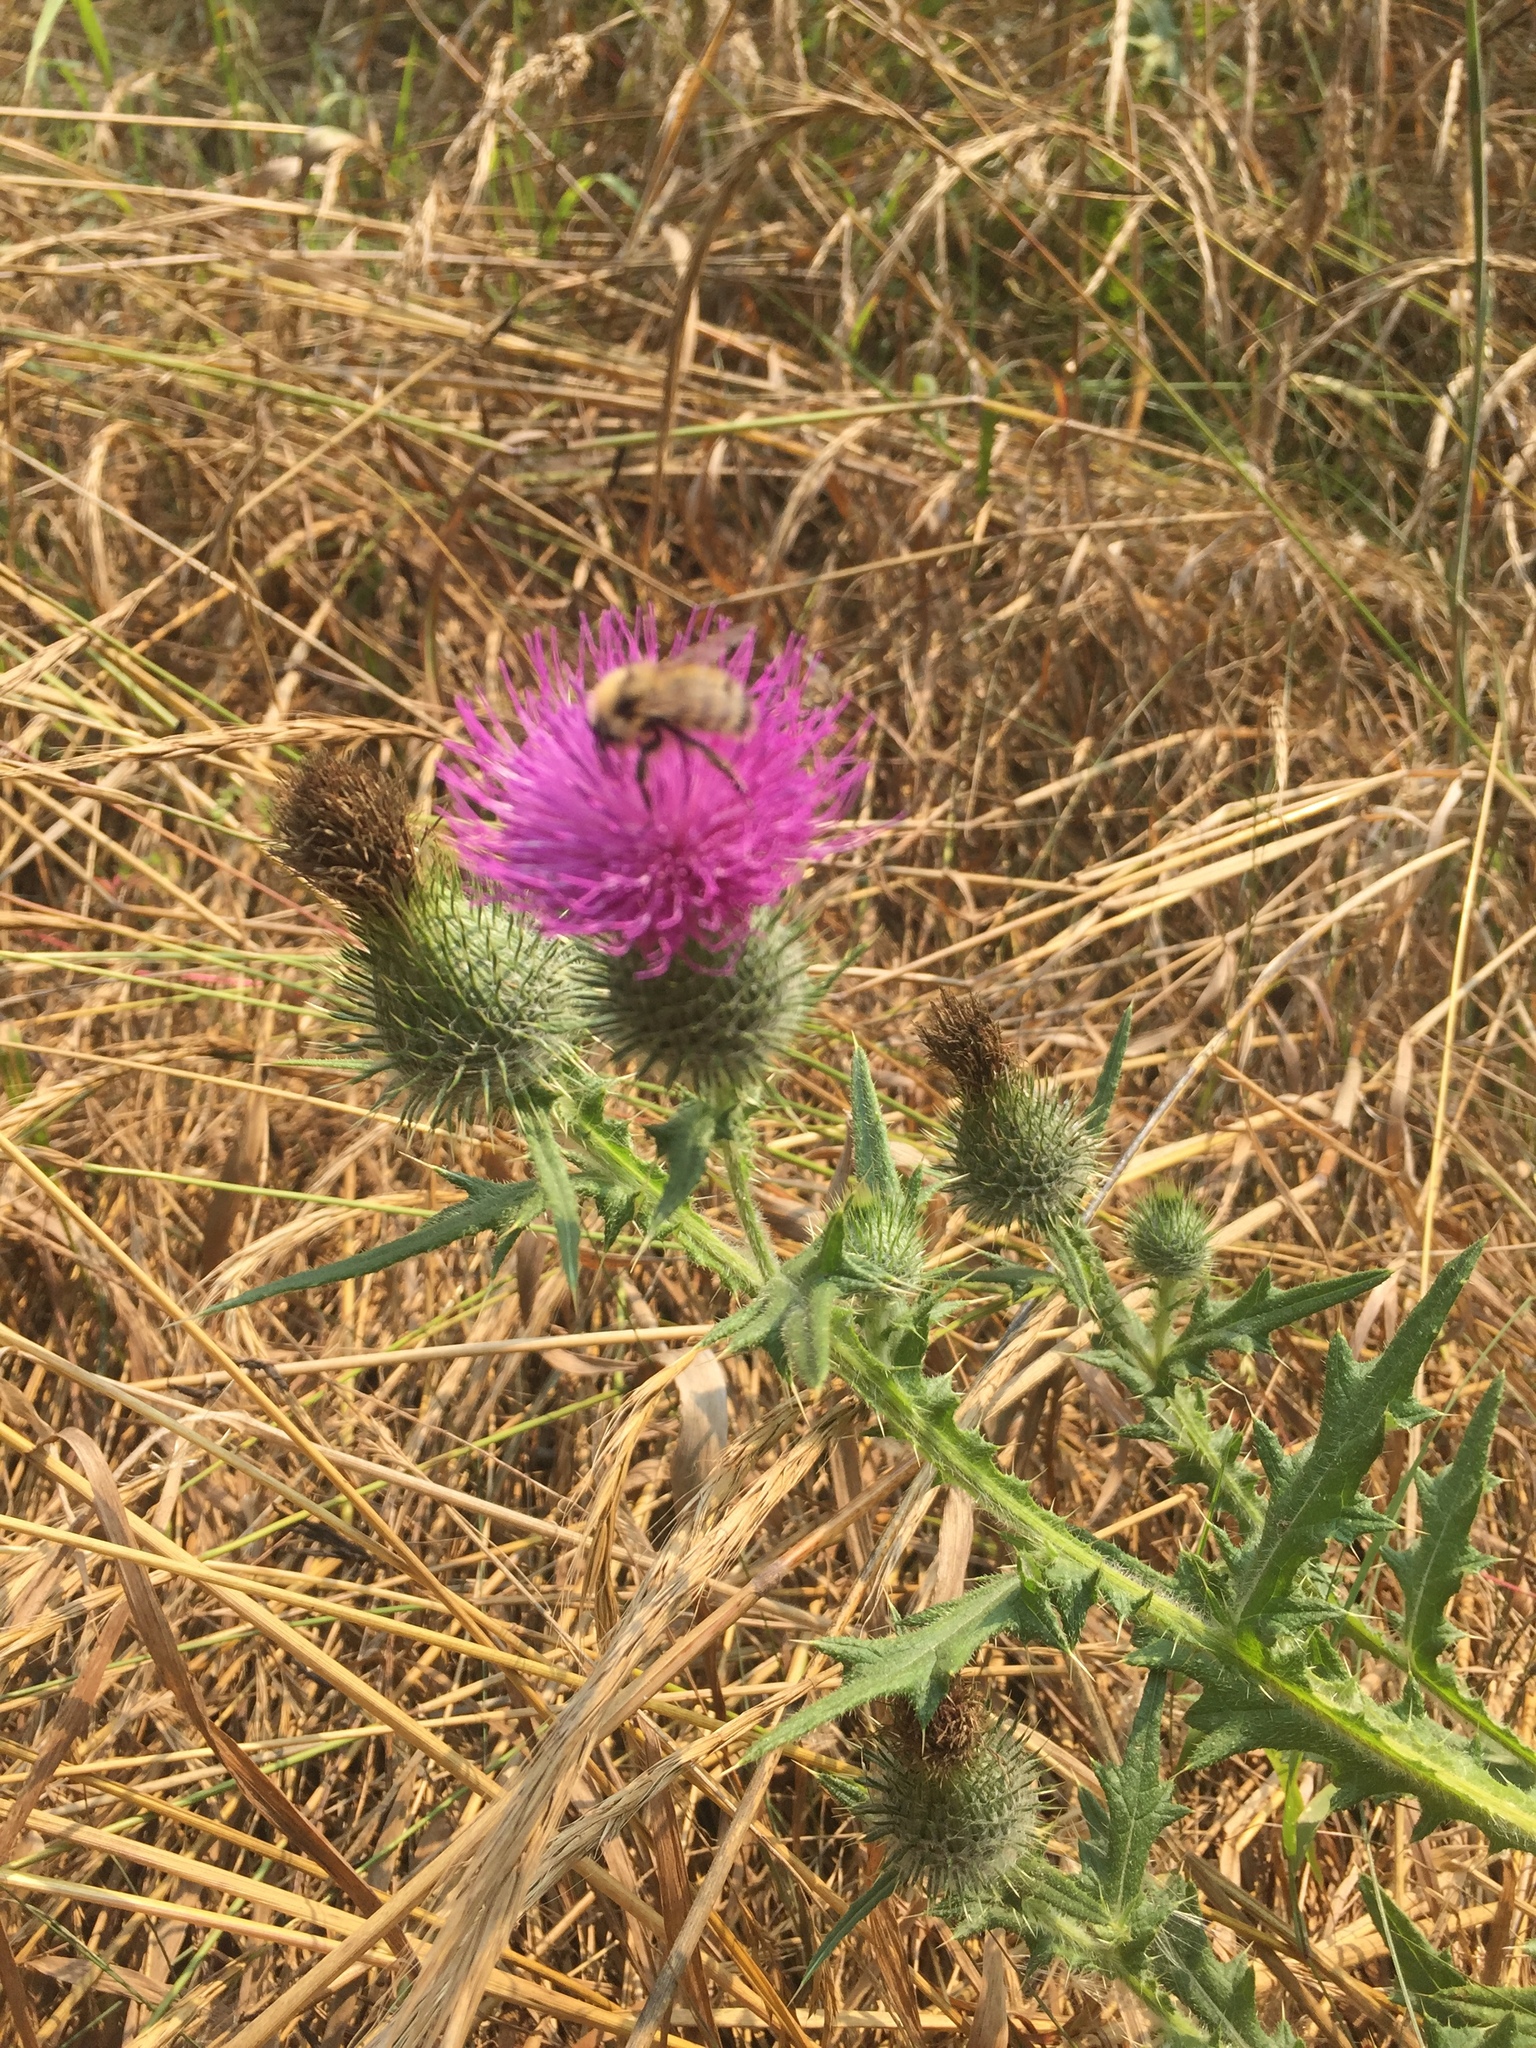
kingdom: Plantae
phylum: Tracheophyta
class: Magnoliopsida
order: Asterales
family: Asteraceae
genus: Cirsium
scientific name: Cirsium vulgare
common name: Bull thistle
